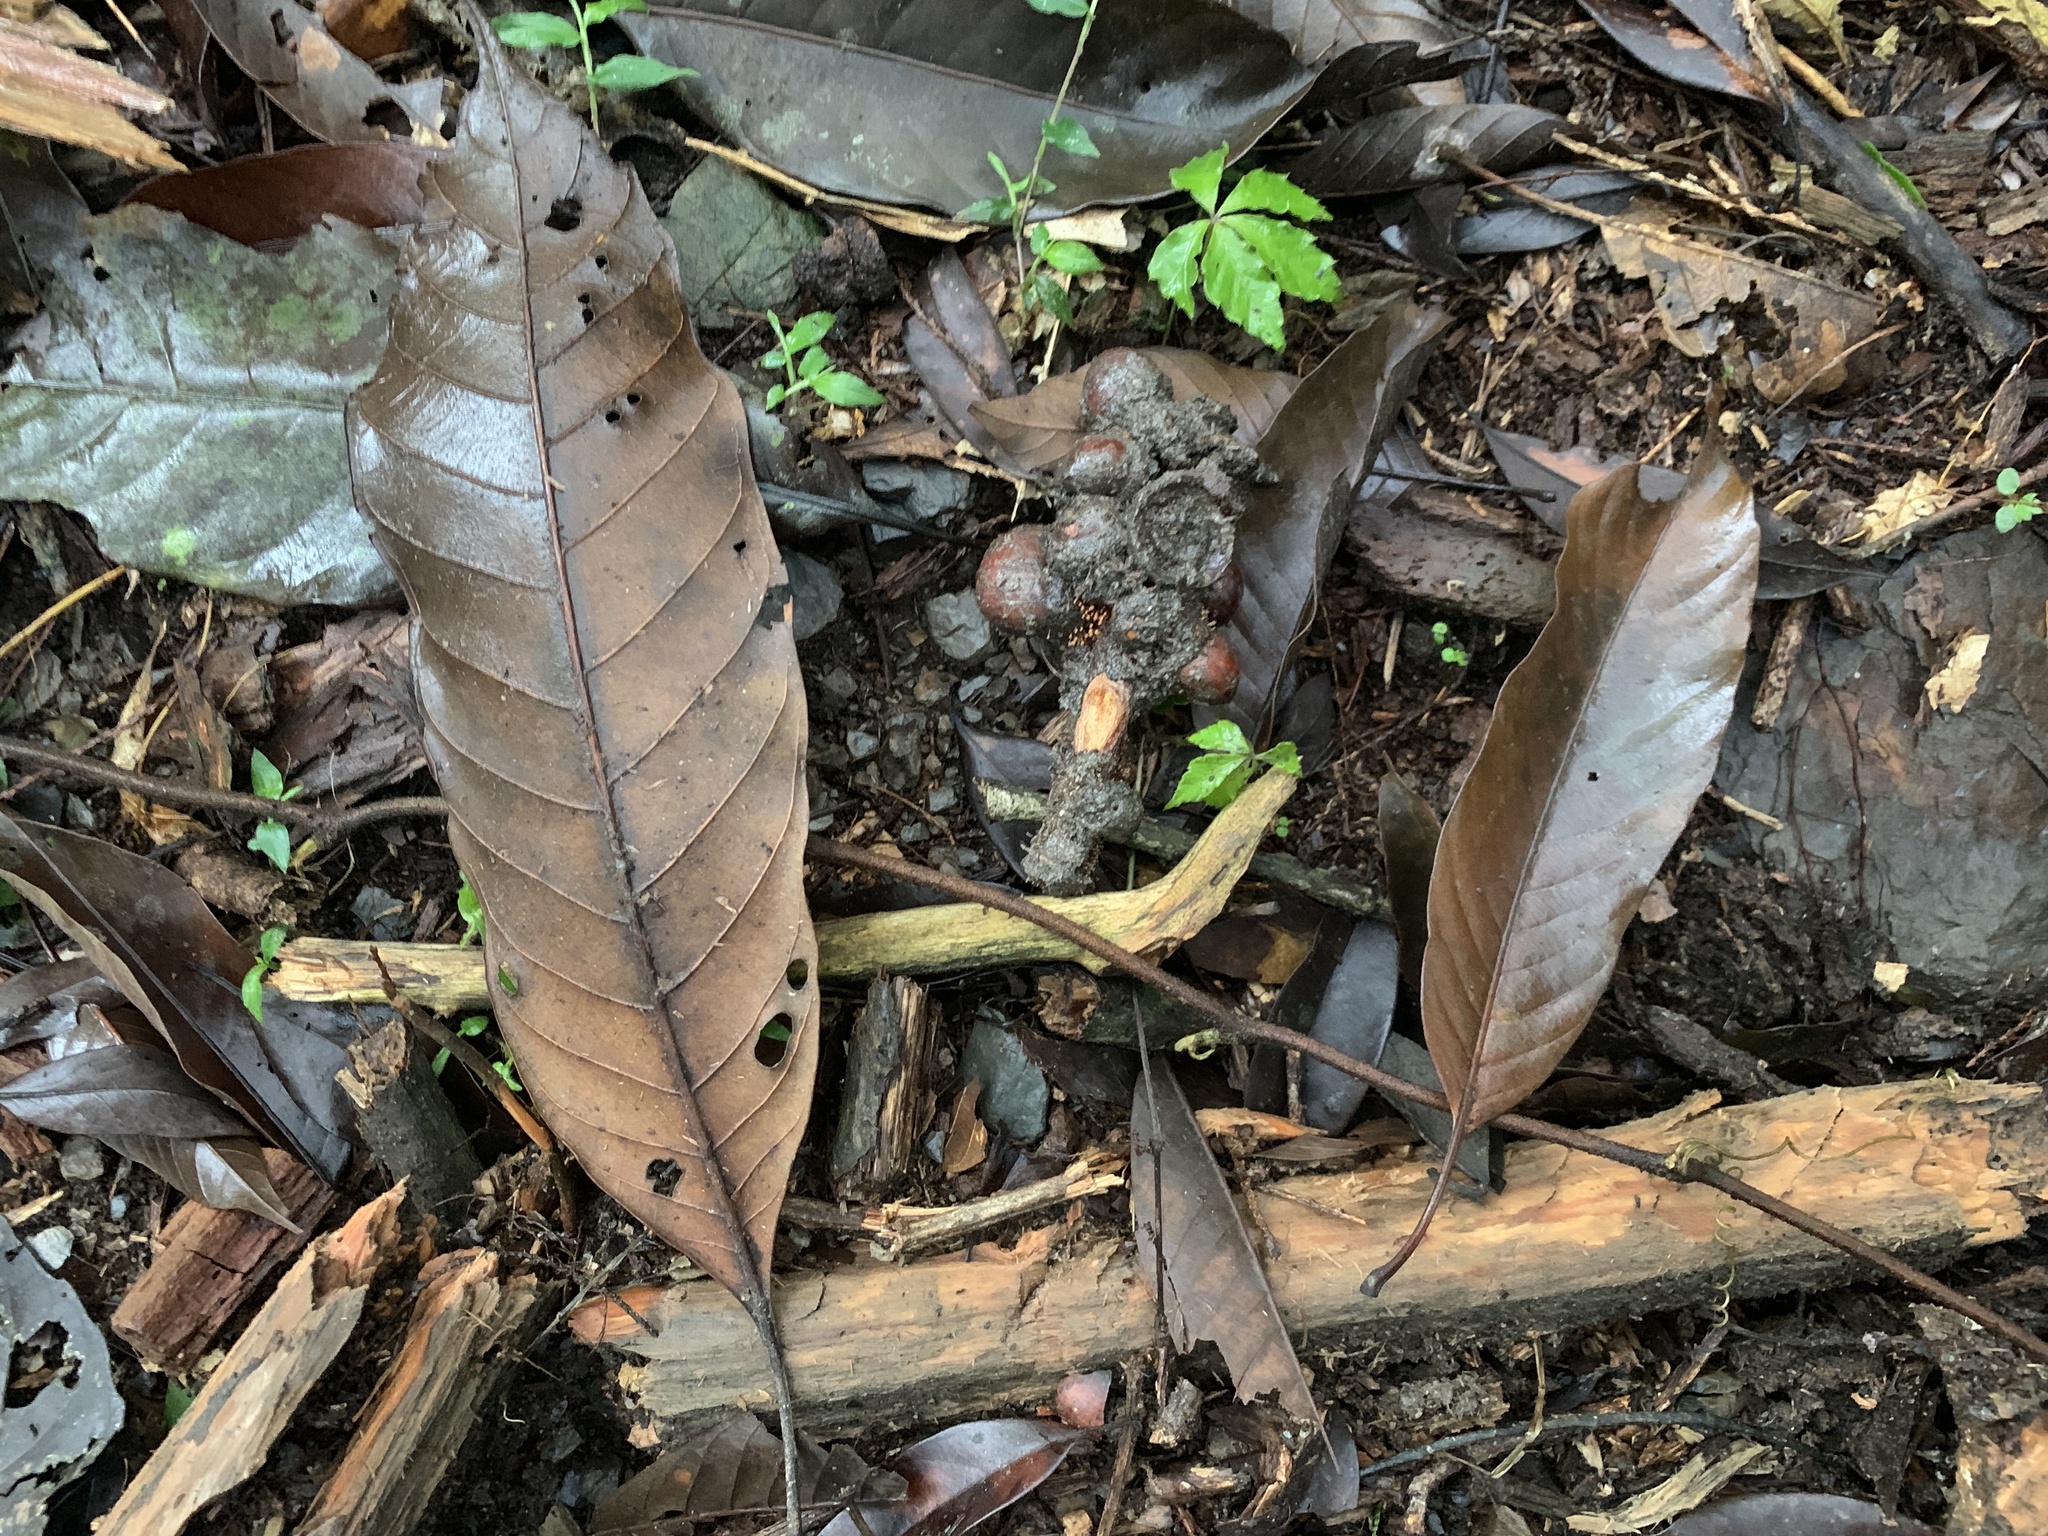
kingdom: Plantae
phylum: Tracheophyta
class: Magnoliopsida
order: Fagales
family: Fagaceae
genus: Lithocarpus
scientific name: Lithocarpus kawakamii
